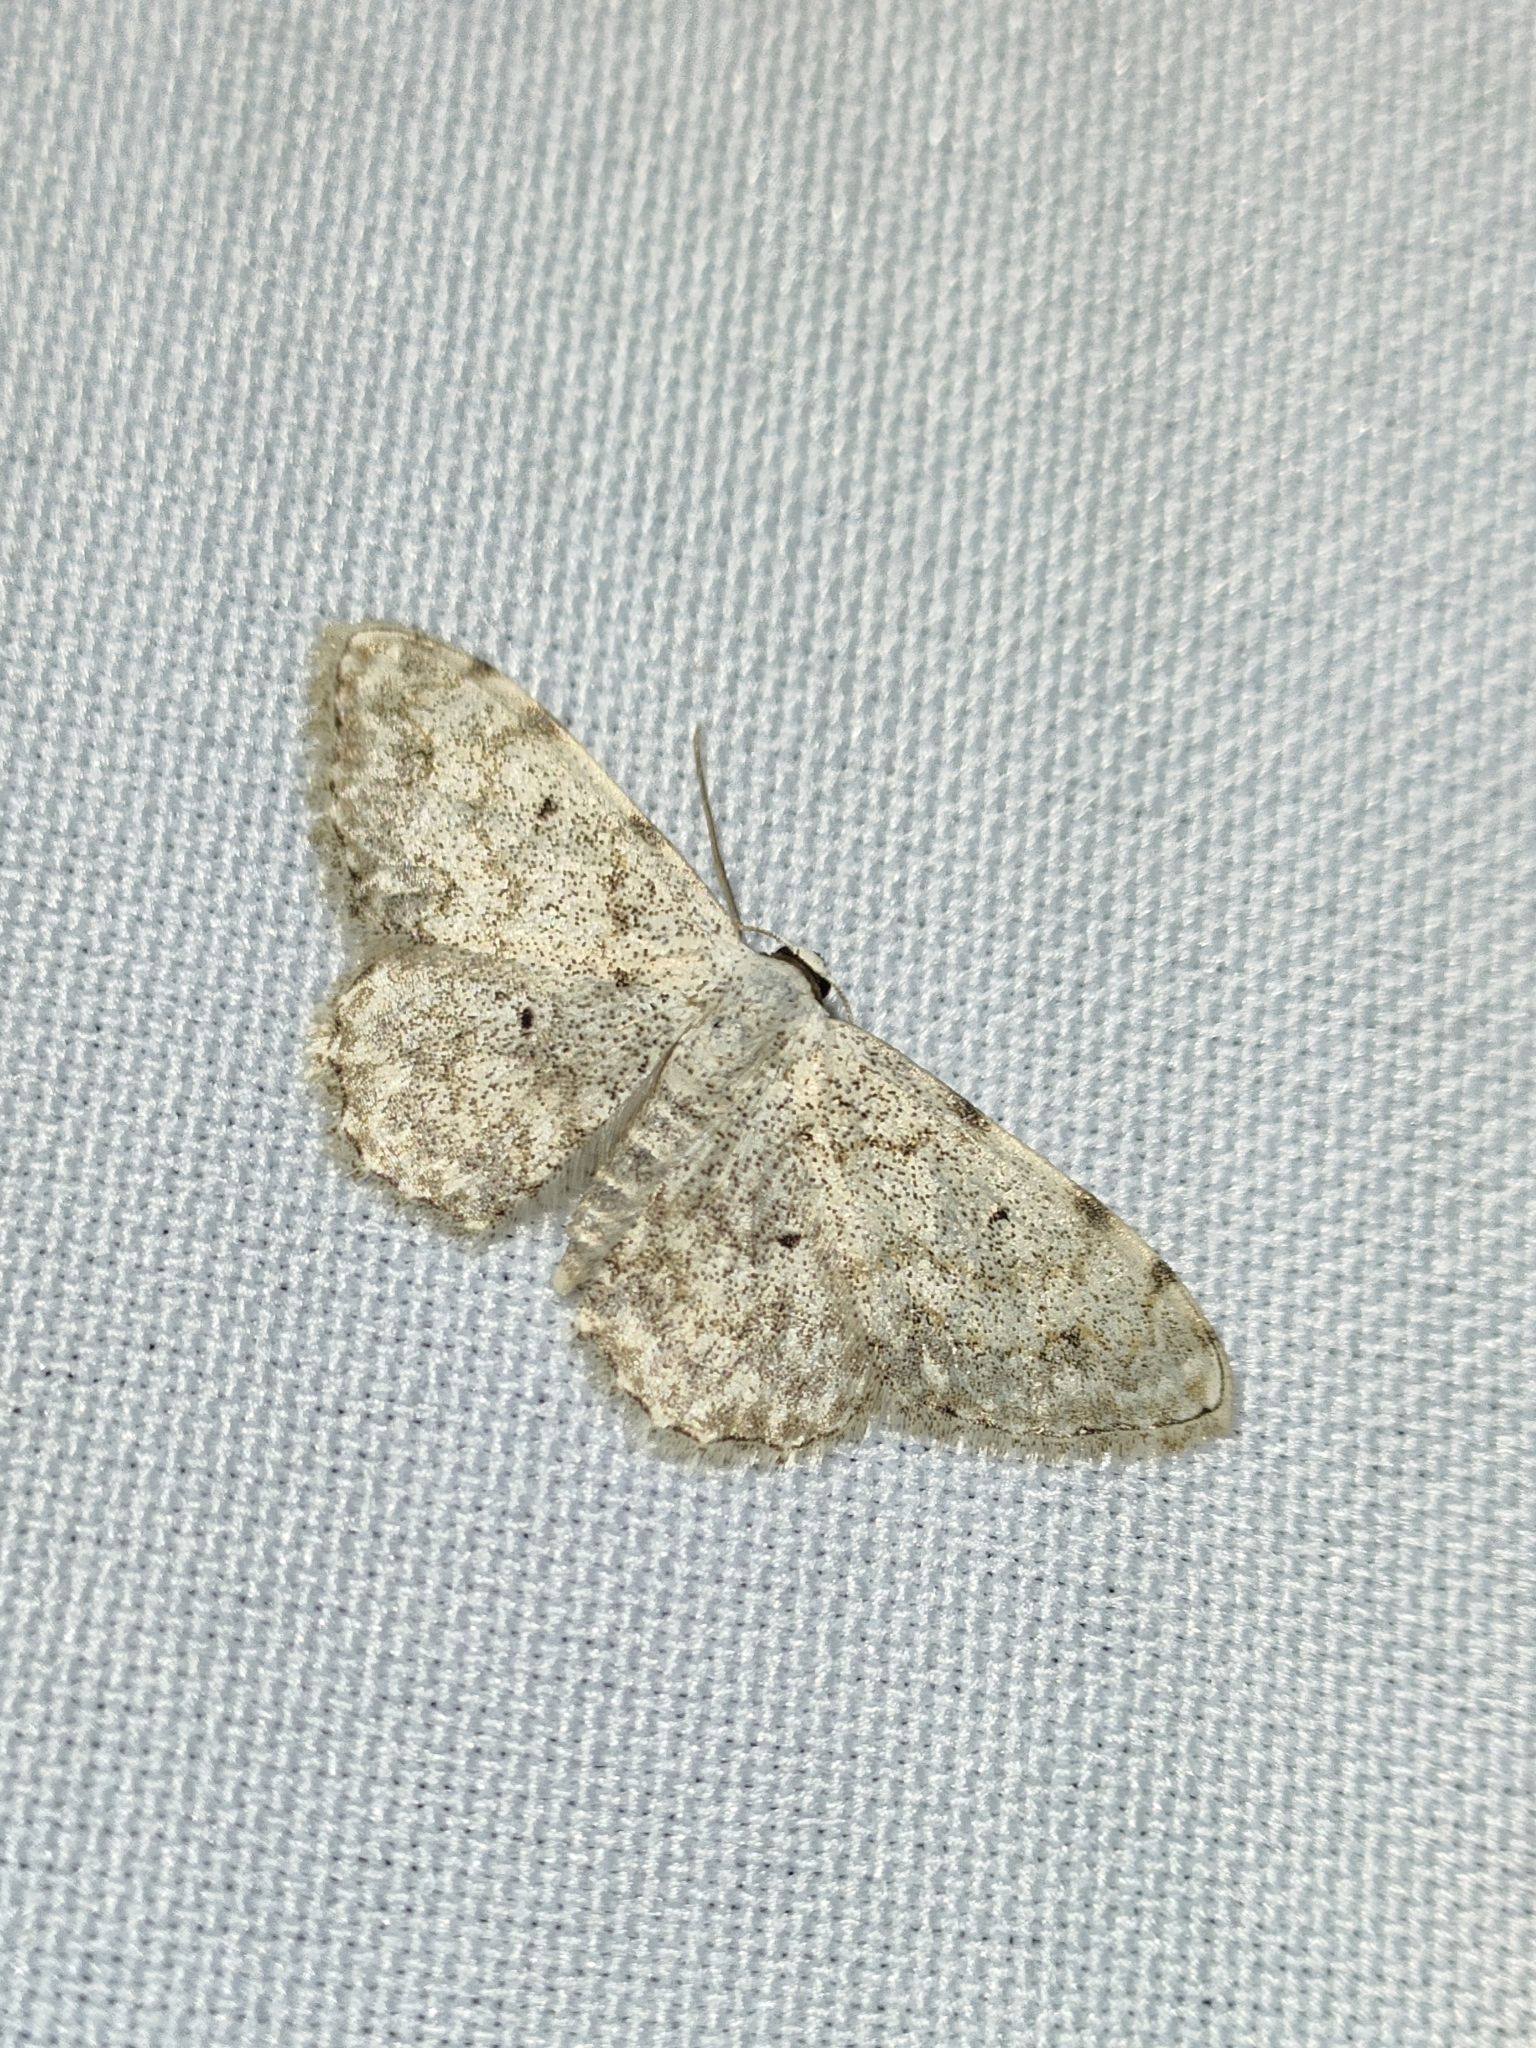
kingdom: Animalia
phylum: Arthropoda
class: Insecta
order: Lepidoptera
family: Geometridae
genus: Scopula
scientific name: Scopula submutata
